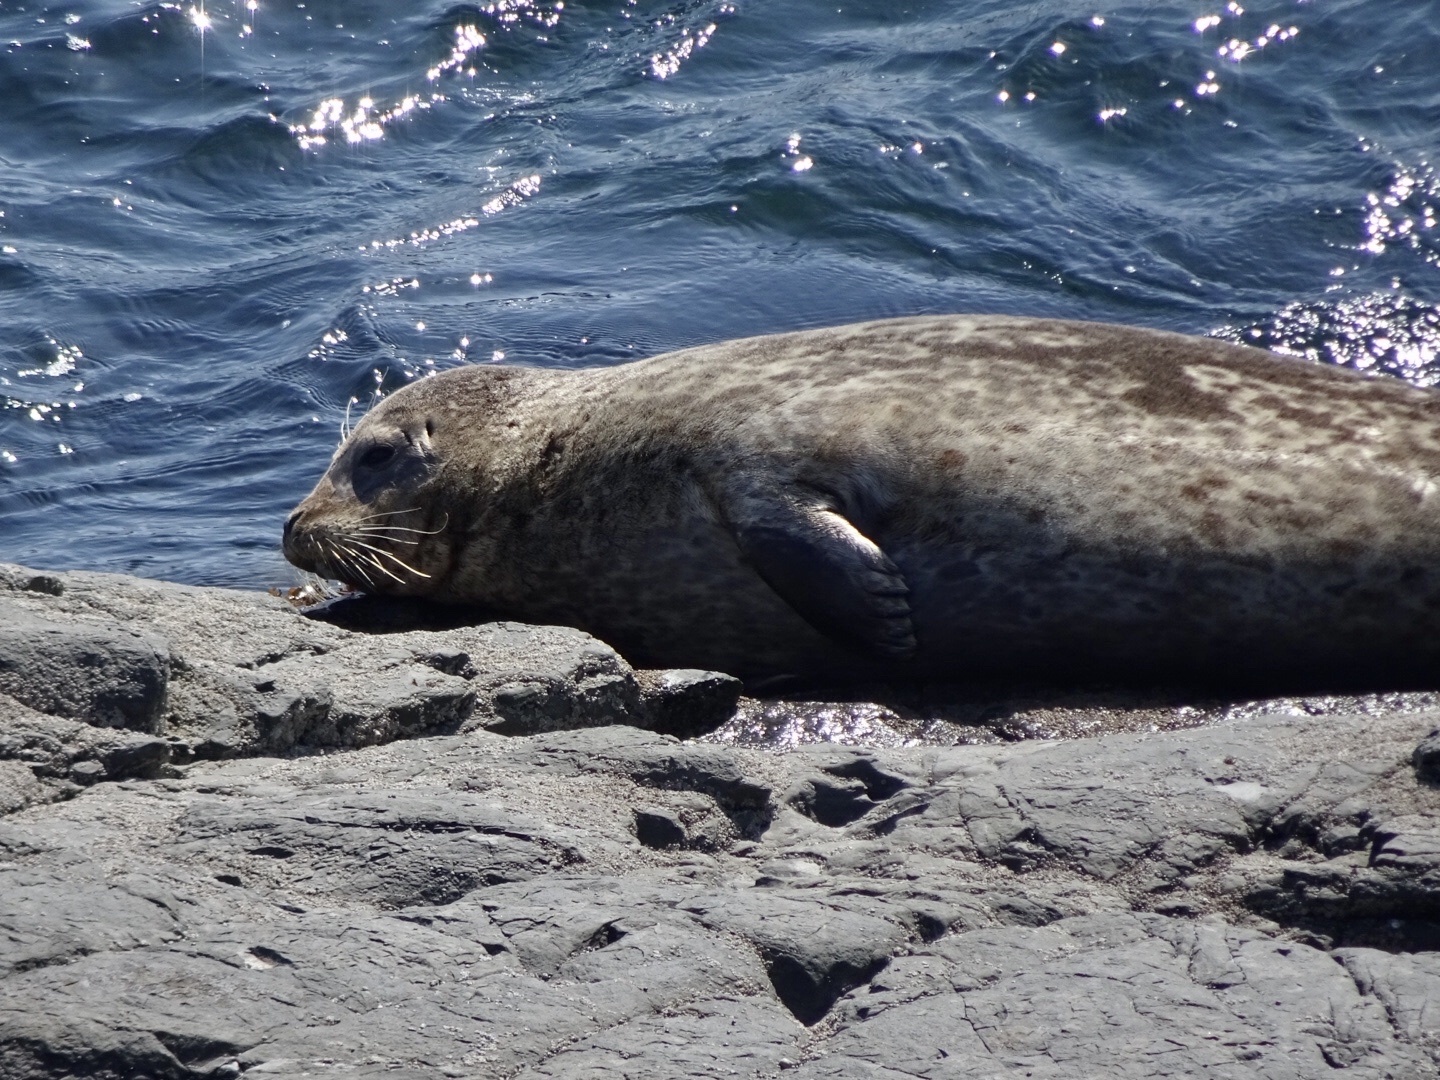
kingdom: Animalia
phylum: Chordata
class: Mammalia
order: Carnivora
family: Phocidae
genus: Phoca
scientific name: Phoca vitulina
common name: Harbor seal
